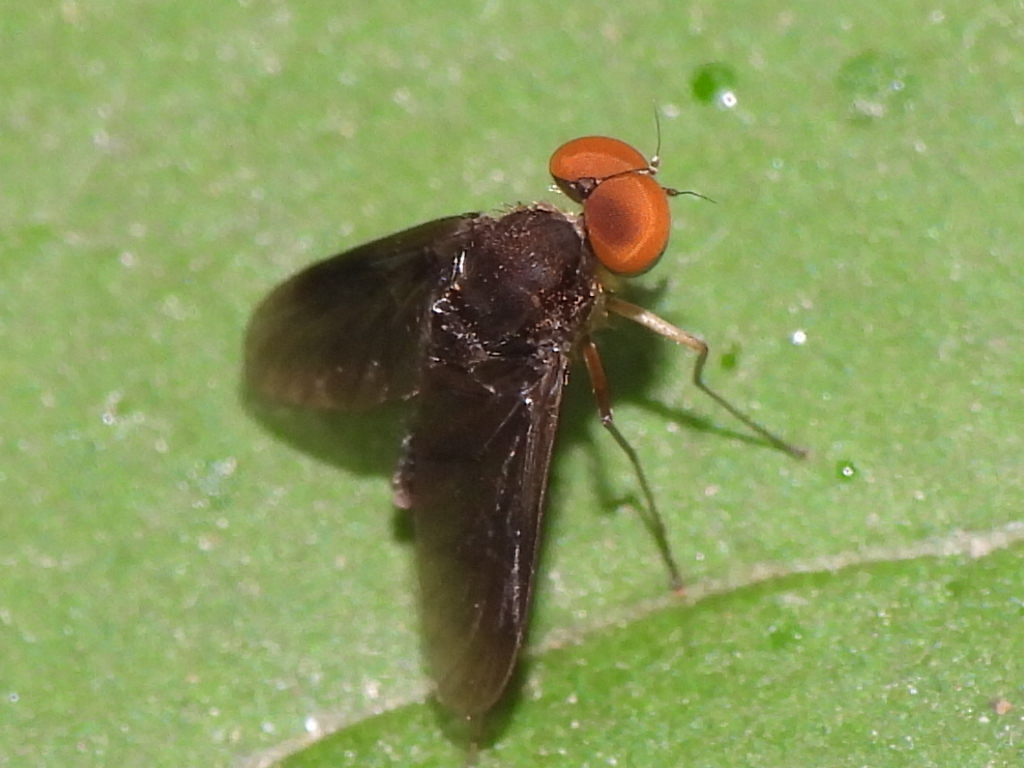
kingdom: Animalia
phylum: Arthropoda
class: Insecta
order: Diptera
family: Rhagionidae
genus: Chrysopilus
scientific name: Chrysopilus quadratus
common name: Quadrate snipe fly
